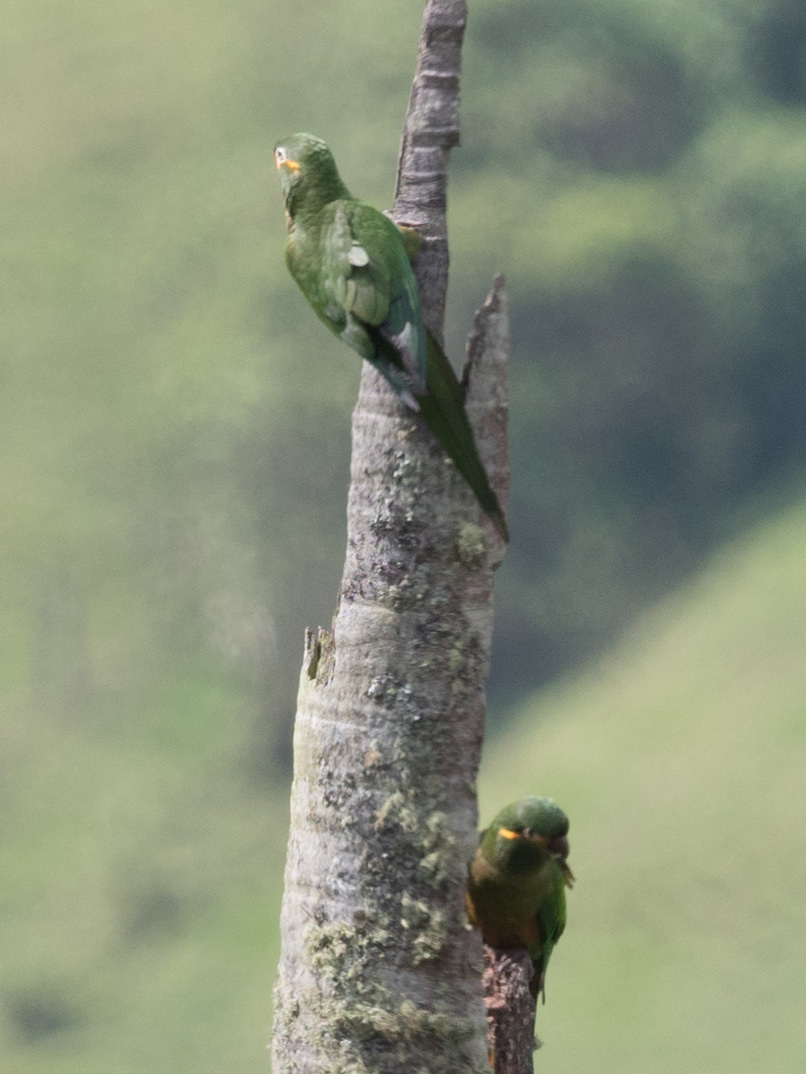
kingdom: Animalia
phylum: Chordata
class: Aves
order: Psittaciformes
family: Psittacidae
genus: Leptosittaca
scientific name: Leptosittaca branickii
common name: Golden-plumed parakeet
